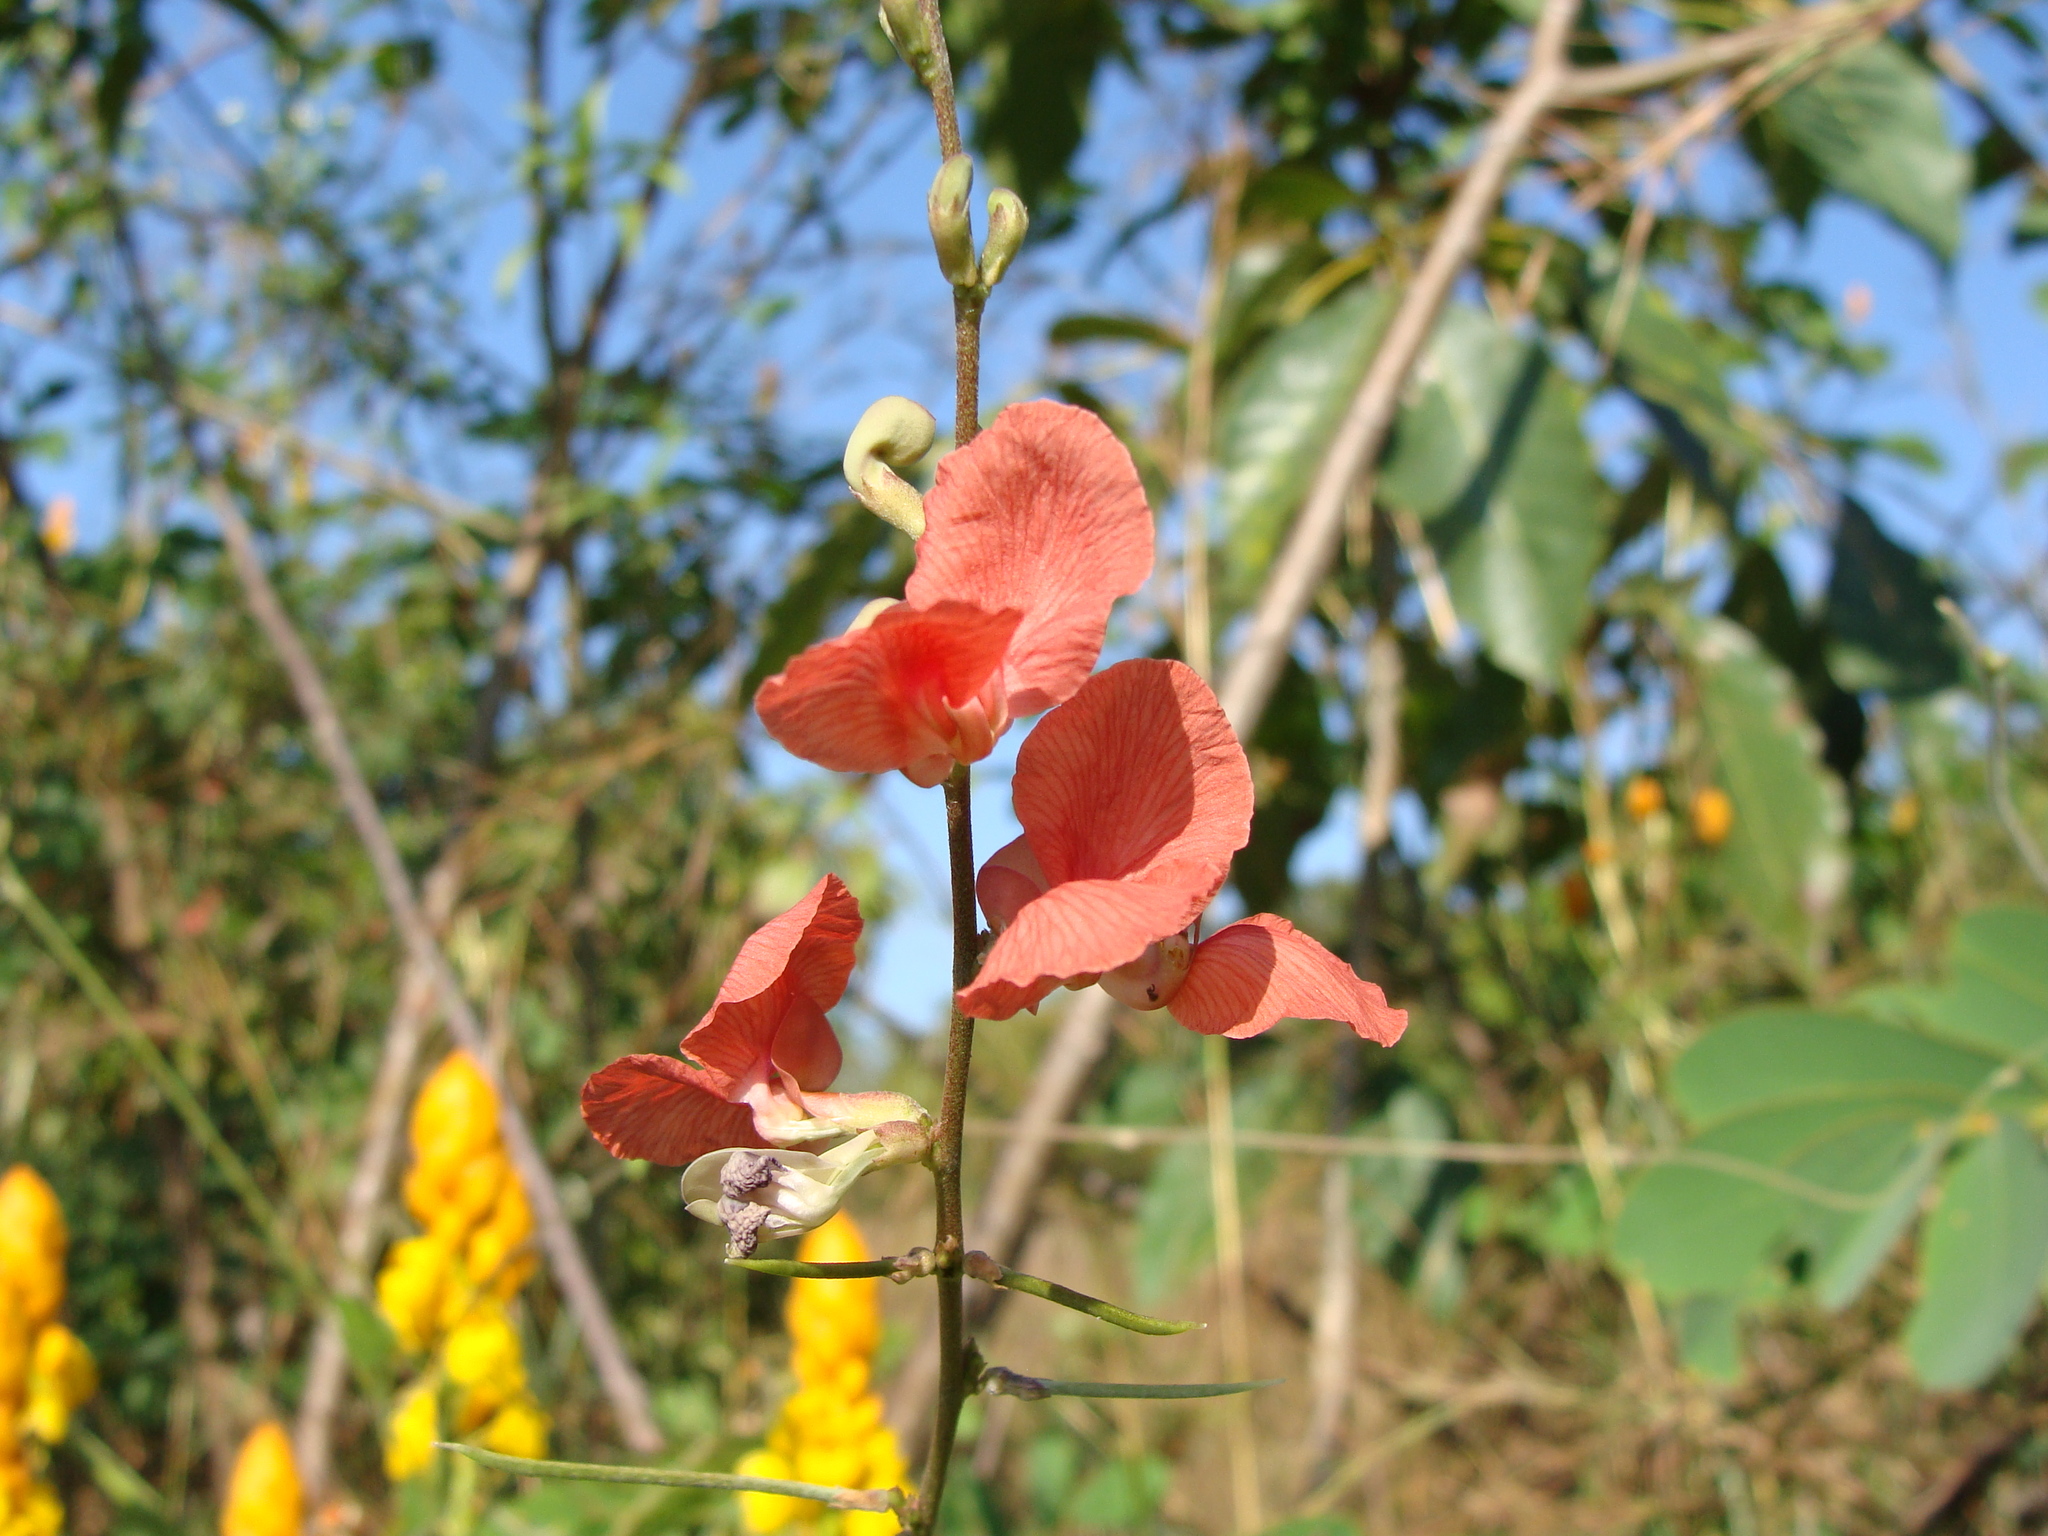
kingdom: Plantae
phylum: Tracheophyta
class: Magnoliopsida
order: Fabales
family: Fabaceae
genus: Macroptilium
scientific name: Macroptilium gracile
